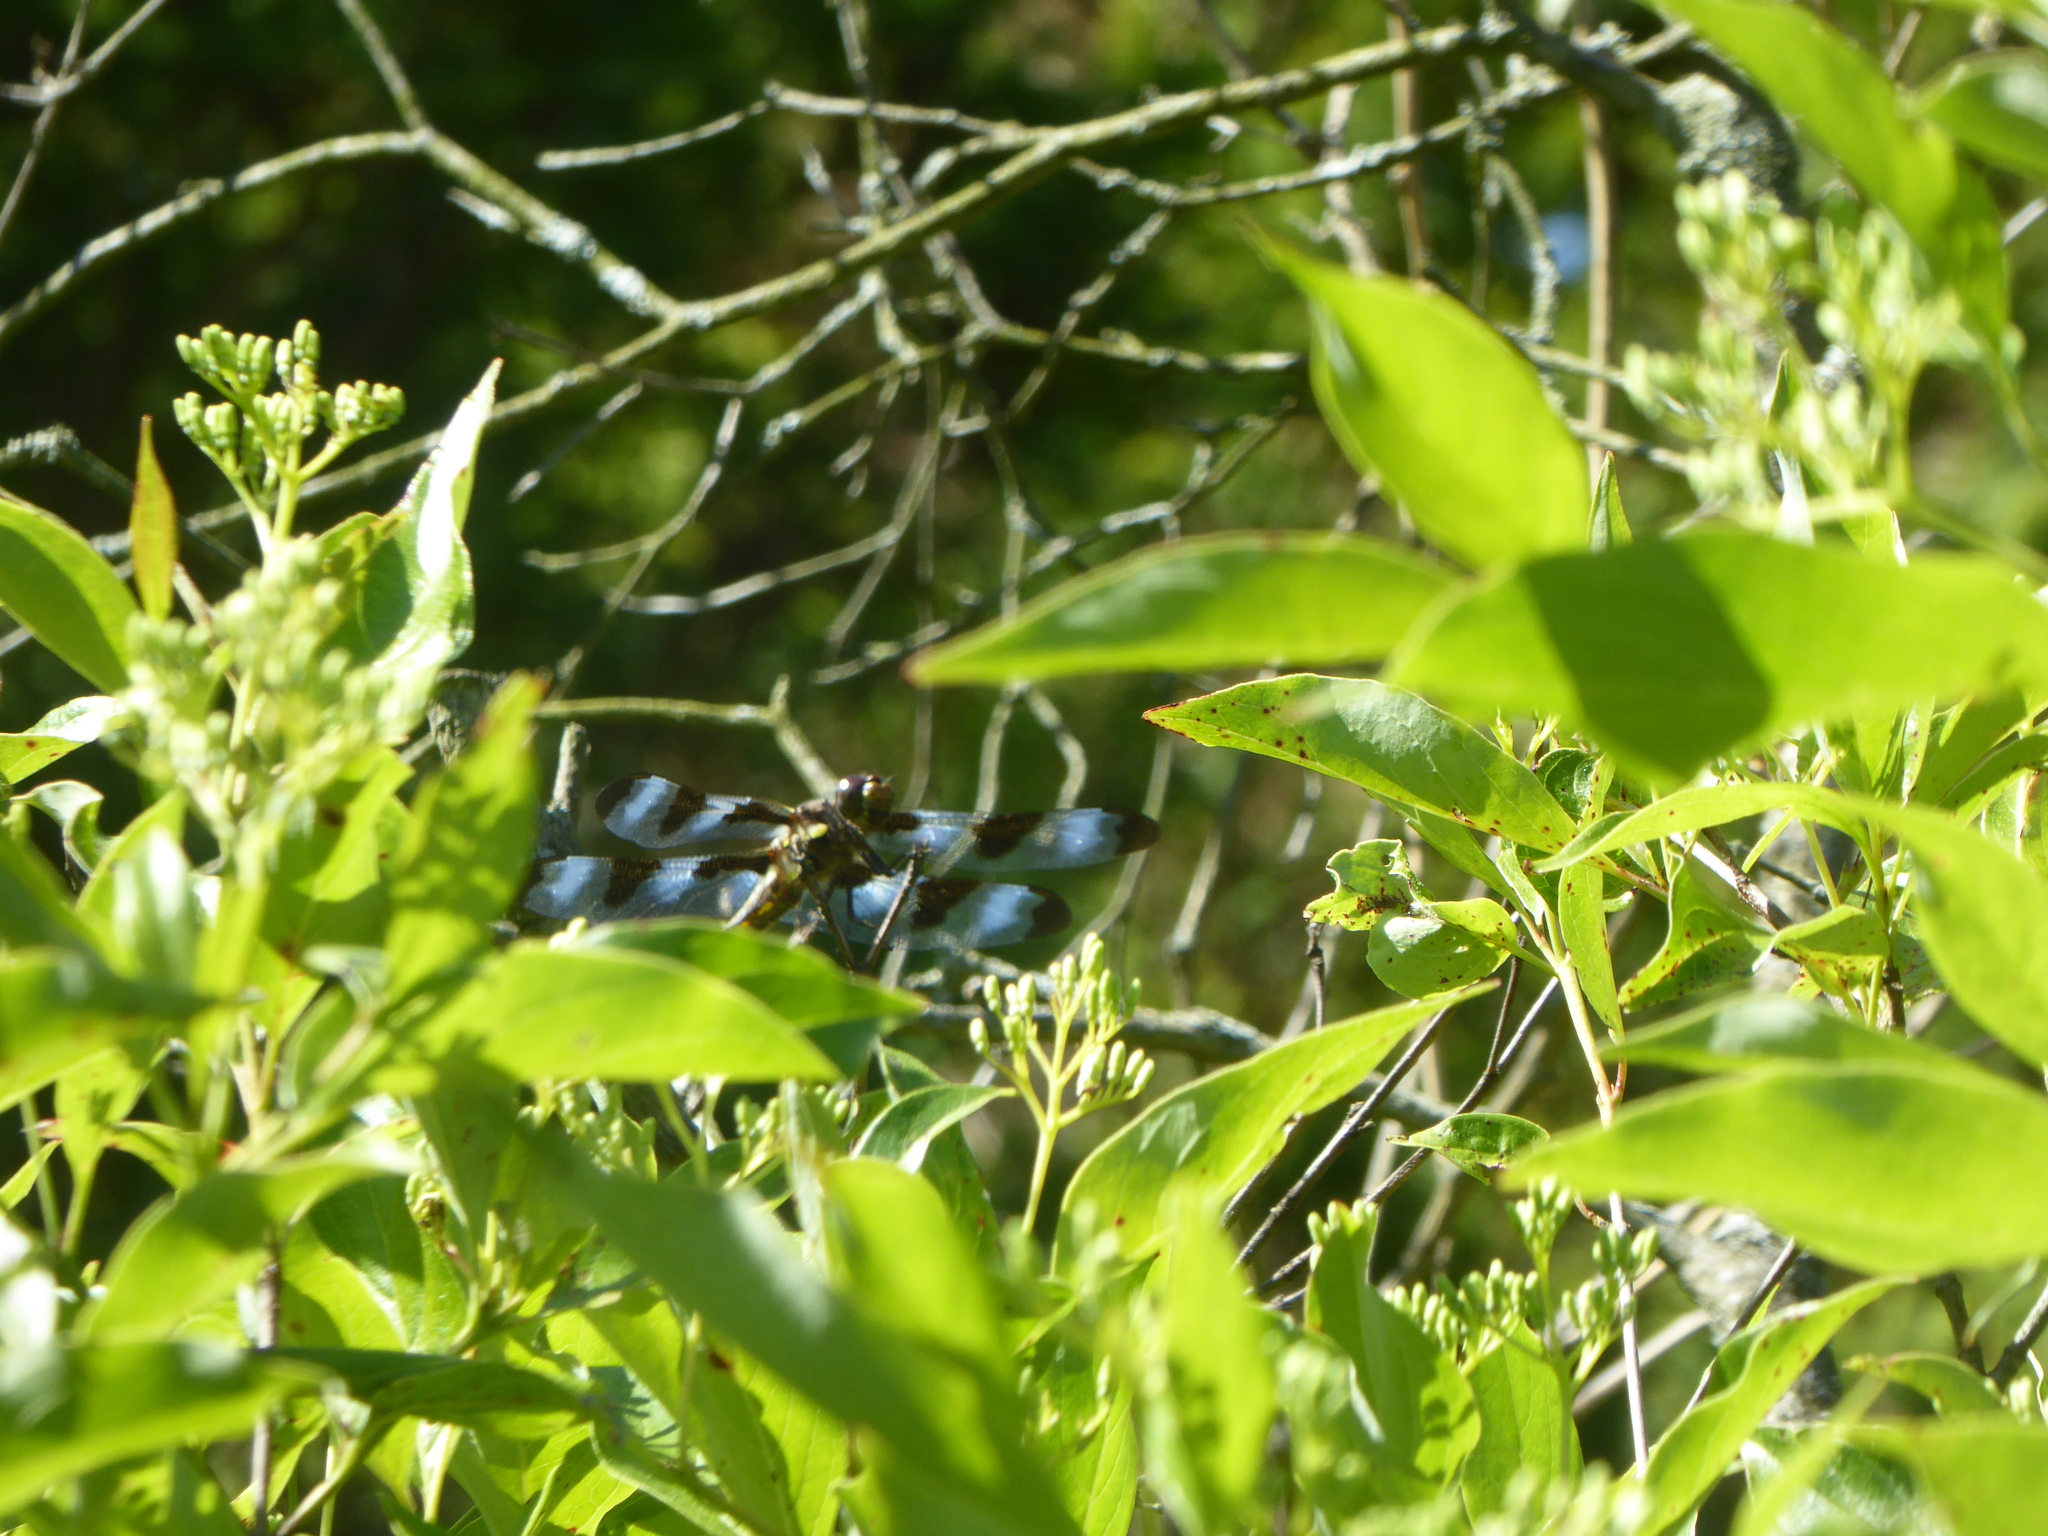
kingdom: Animalia
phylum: Arthropoda
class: Insecta
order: Odonata
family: Libellulidae
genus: Libellula
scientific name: Libellula pulchella
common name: Twelve-spotted skimmer
